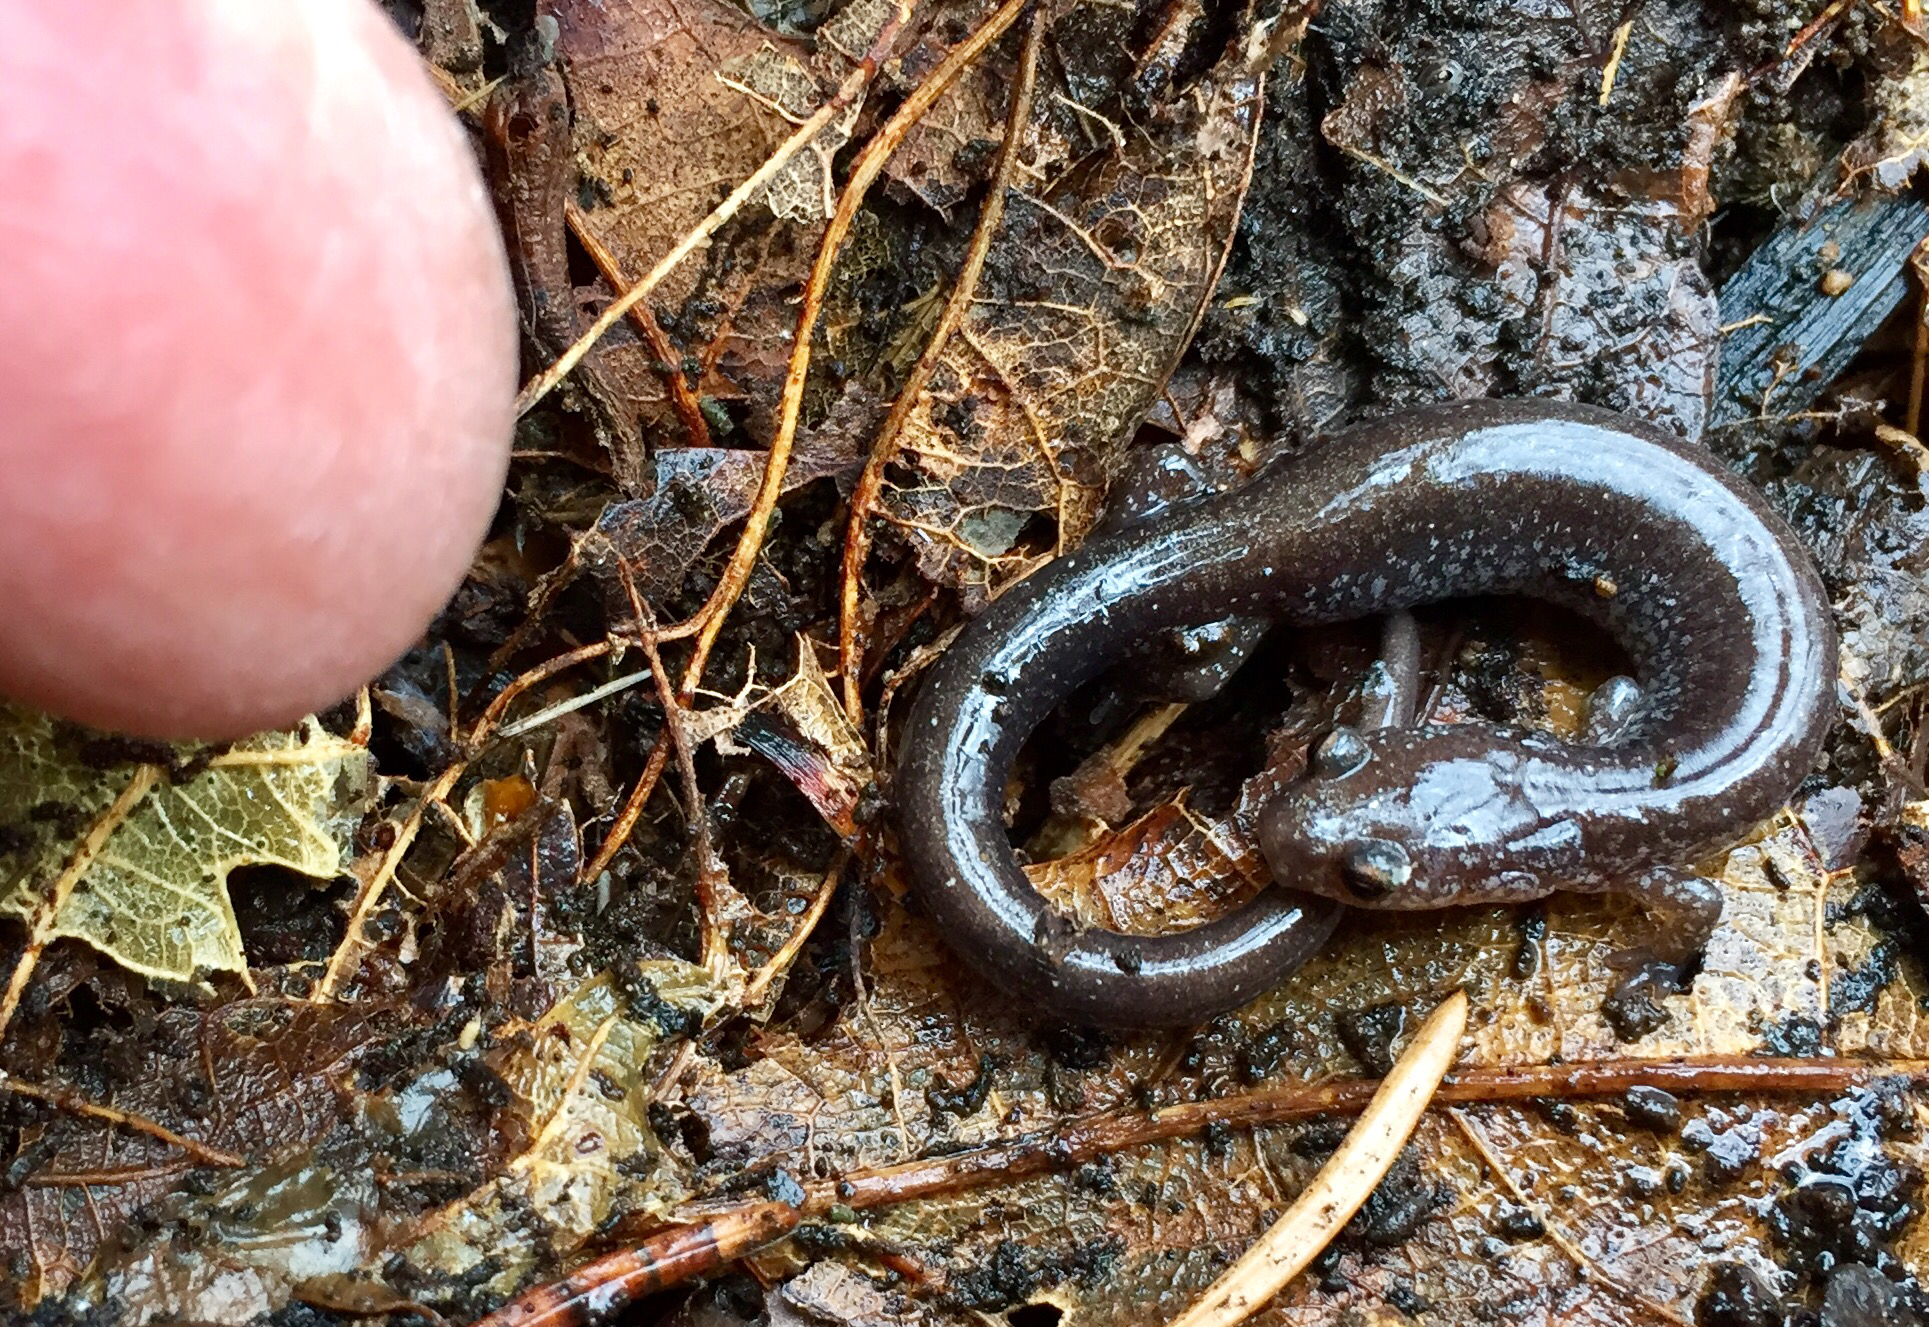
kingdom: Animalia
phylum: Chordata
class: Amphibia
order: Caudata
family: Plethodontidae
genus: Plethodon
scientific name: Plethodon cinereus
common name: Redback salamander
